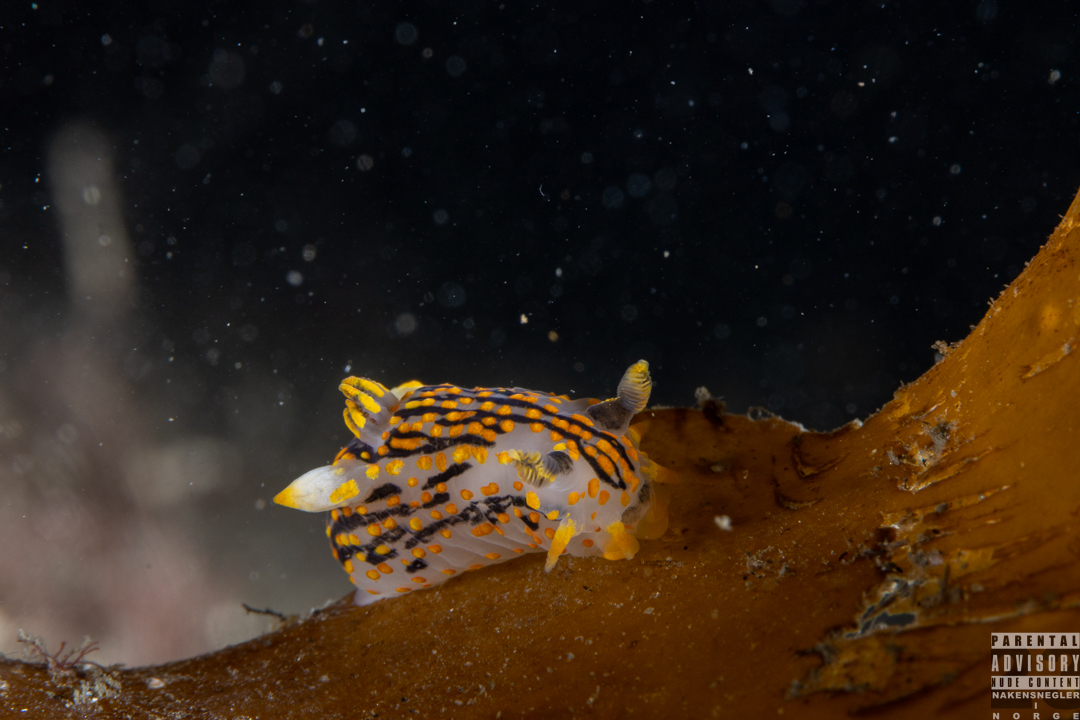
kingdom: Animalia
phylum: Mollusca
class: Gastropoda
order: Nudibranchia
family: Polyceridae
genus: Polycera
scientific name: Polycera quadrilineata
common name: Four-striped polycera
